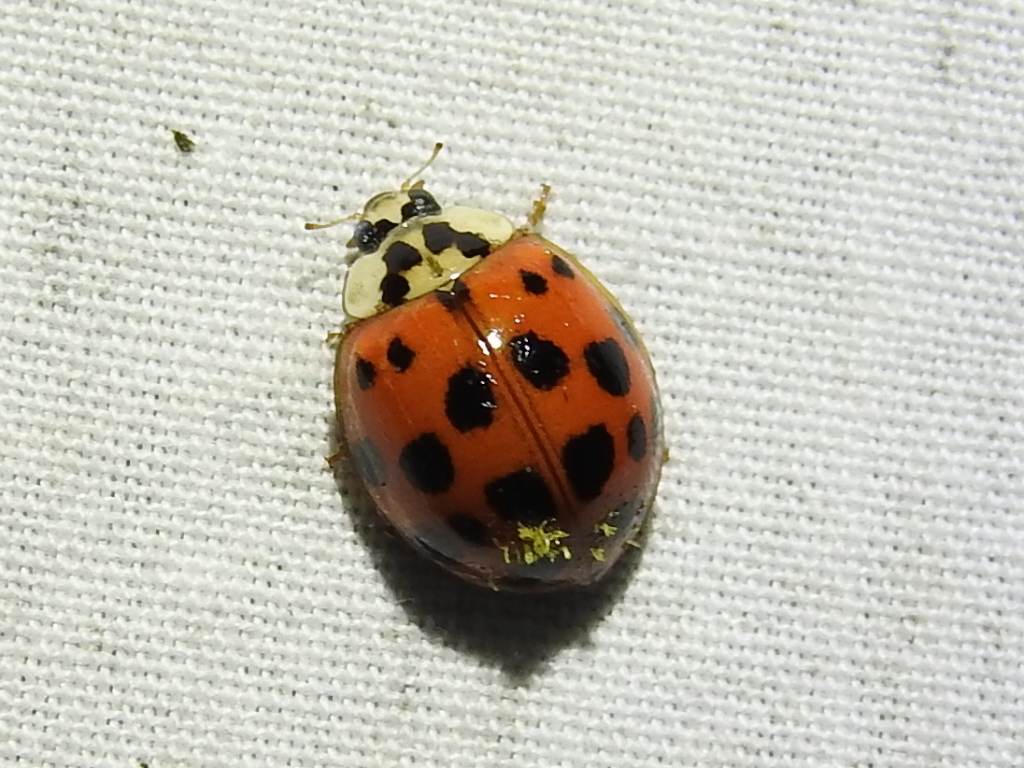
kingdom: Animalia
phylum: Arthropoda
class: Insecta
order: Coleoptera
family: Coccinellidae
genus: Harmonia
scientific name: Harmonia axyridis
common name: Harlequin ladybird
